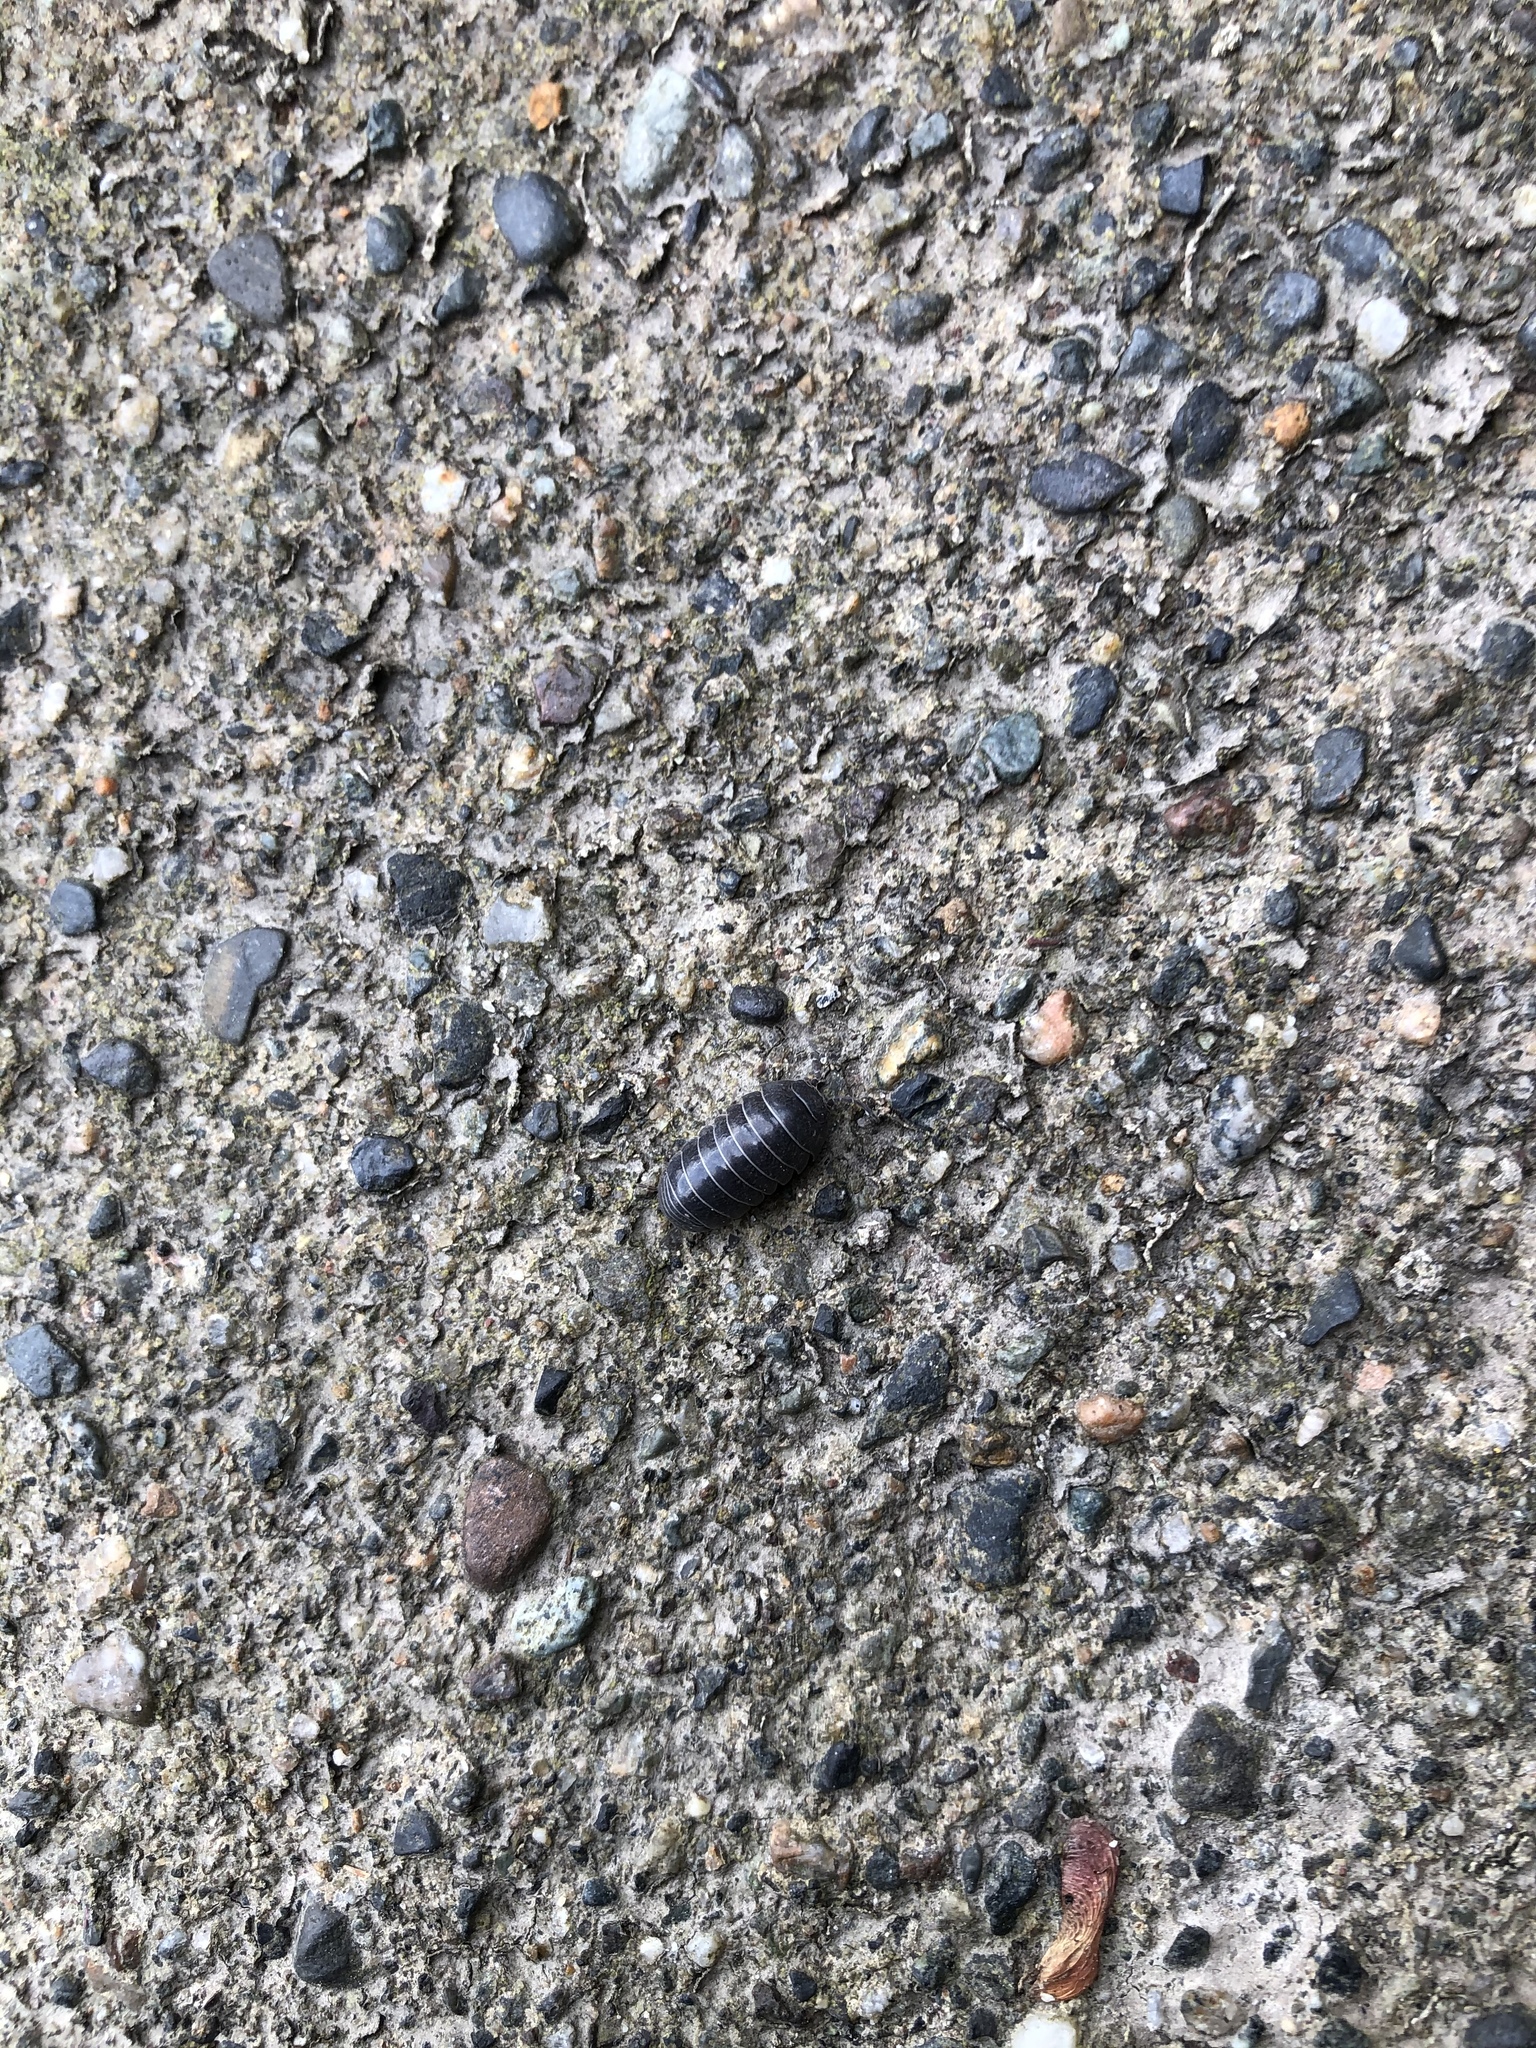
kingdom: Animalia
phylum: Arthropoda
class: Malacostraca
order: Isopoda
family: Armadillidiidae
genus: Armadillidium
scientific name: Armadillidium vulgare
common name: Common pill woodlouse
